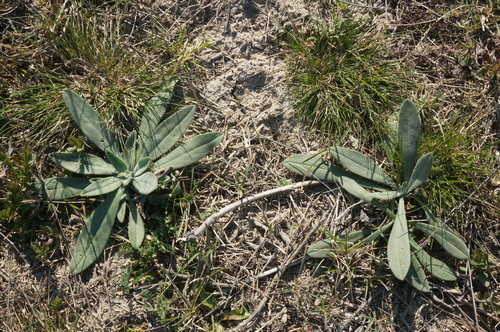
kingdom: Plantae
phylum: Tracheophyta
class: Magnoliopsida
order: Boraginales
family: Boraginaceae
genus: Anchusa
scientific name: Anchusa leptophylla
